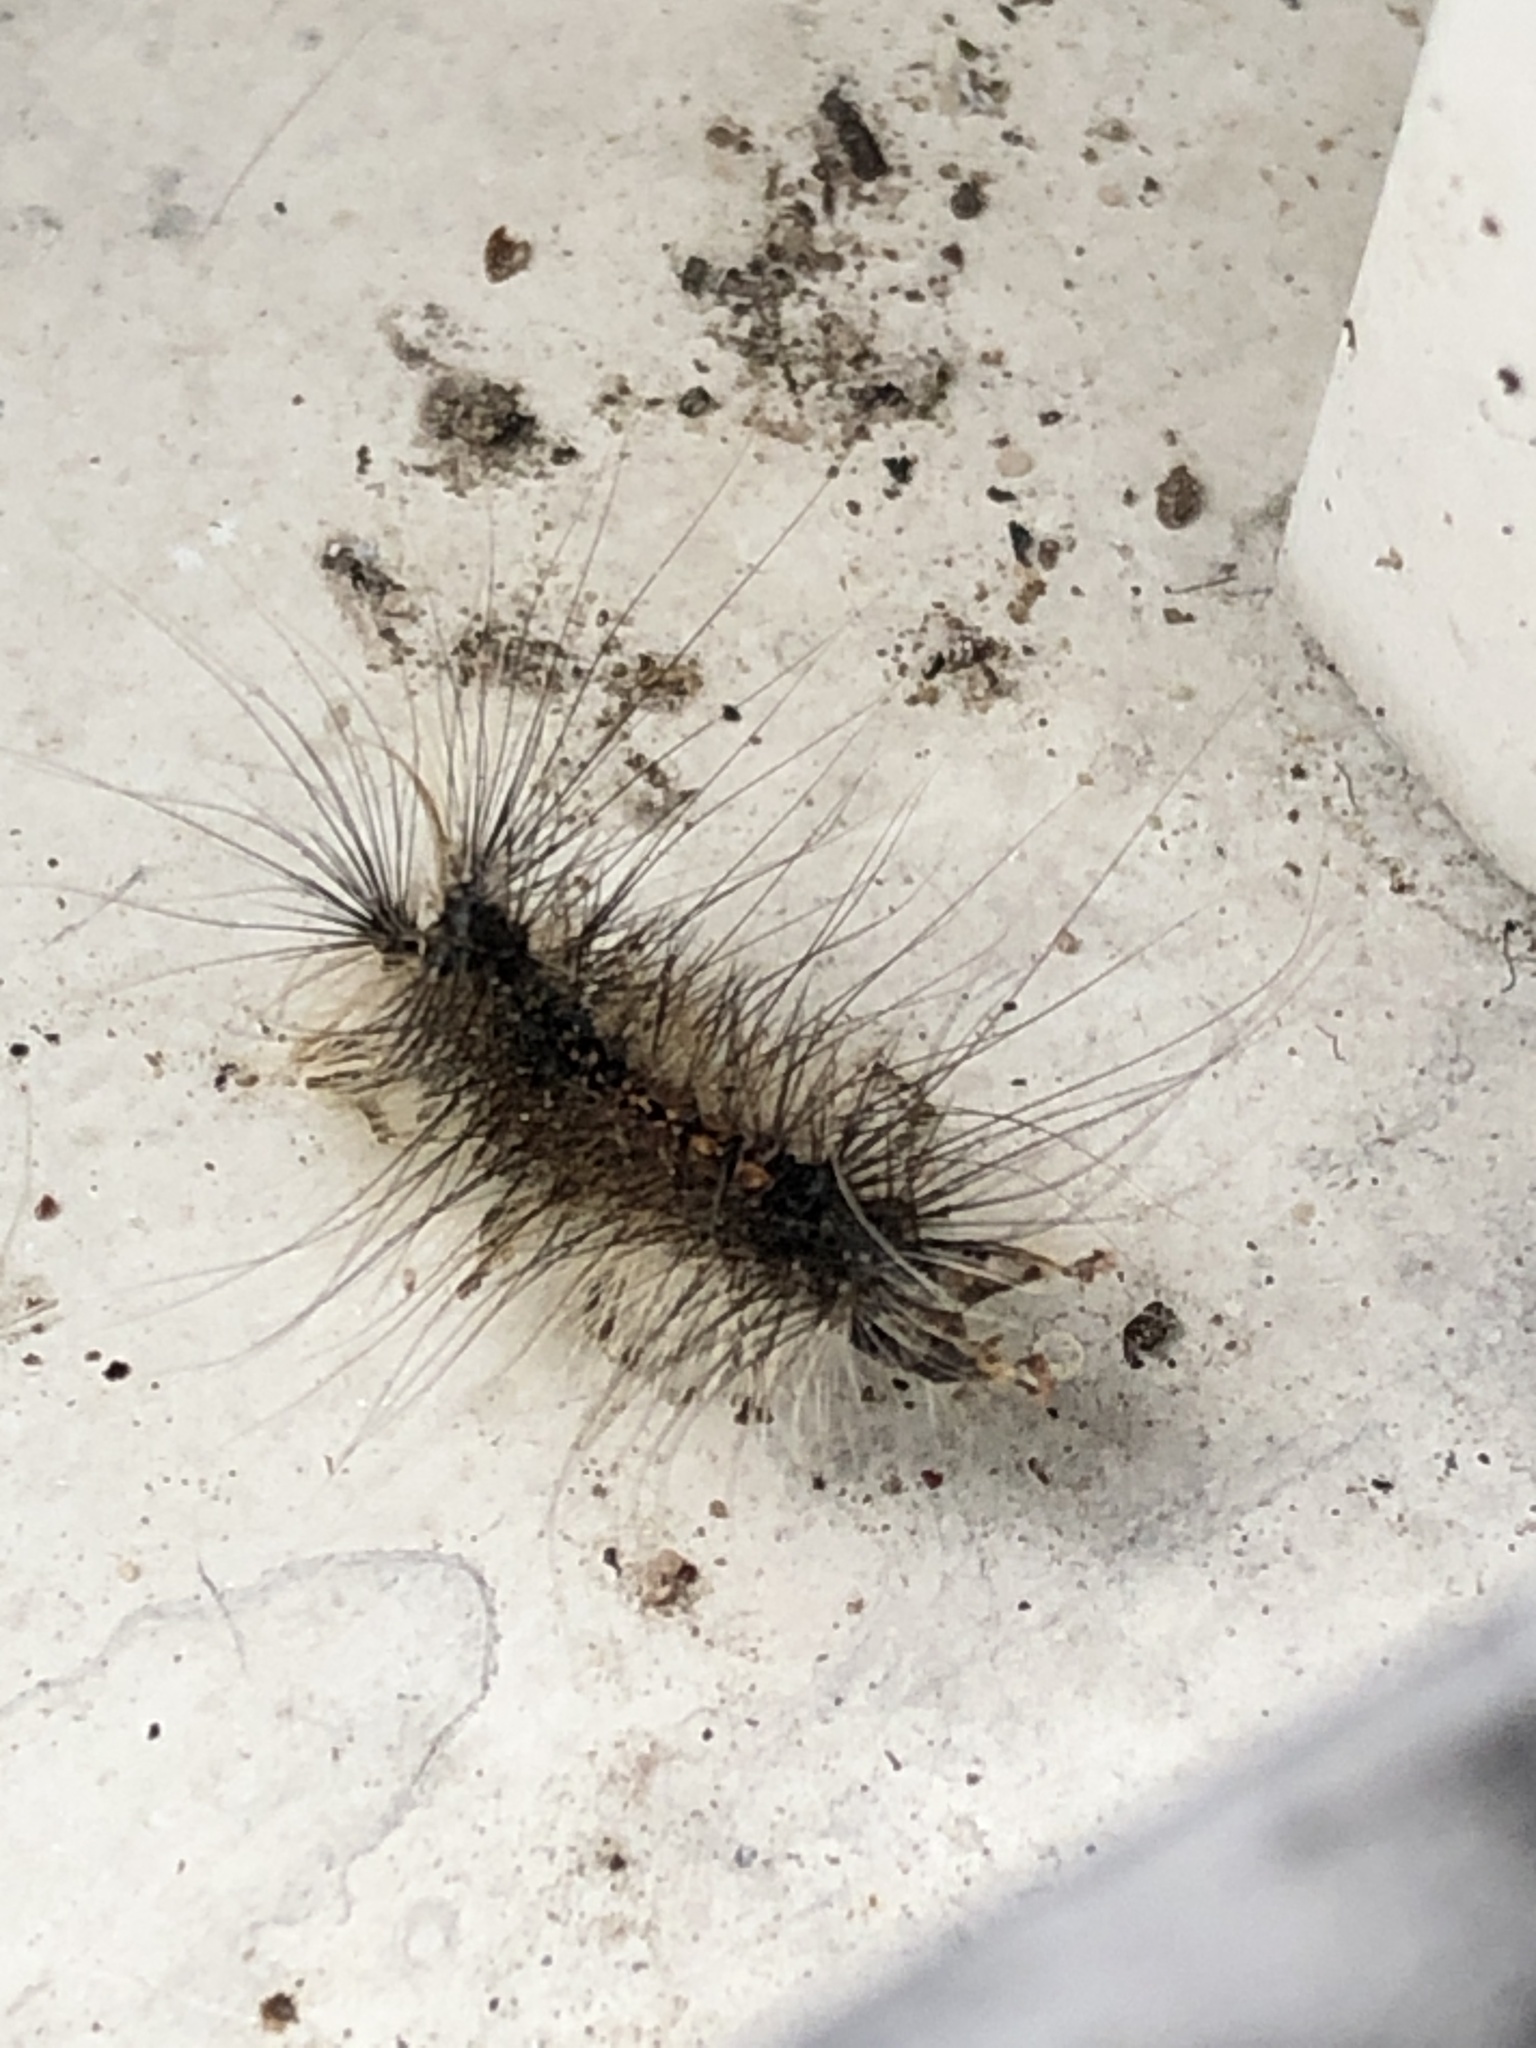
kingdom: Animalia
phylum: Arthropoda
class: Insecta
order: Lepidoptera
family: Erebidae
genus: Lymantria
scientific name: Lymantria dispar
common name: Gypsy moth
